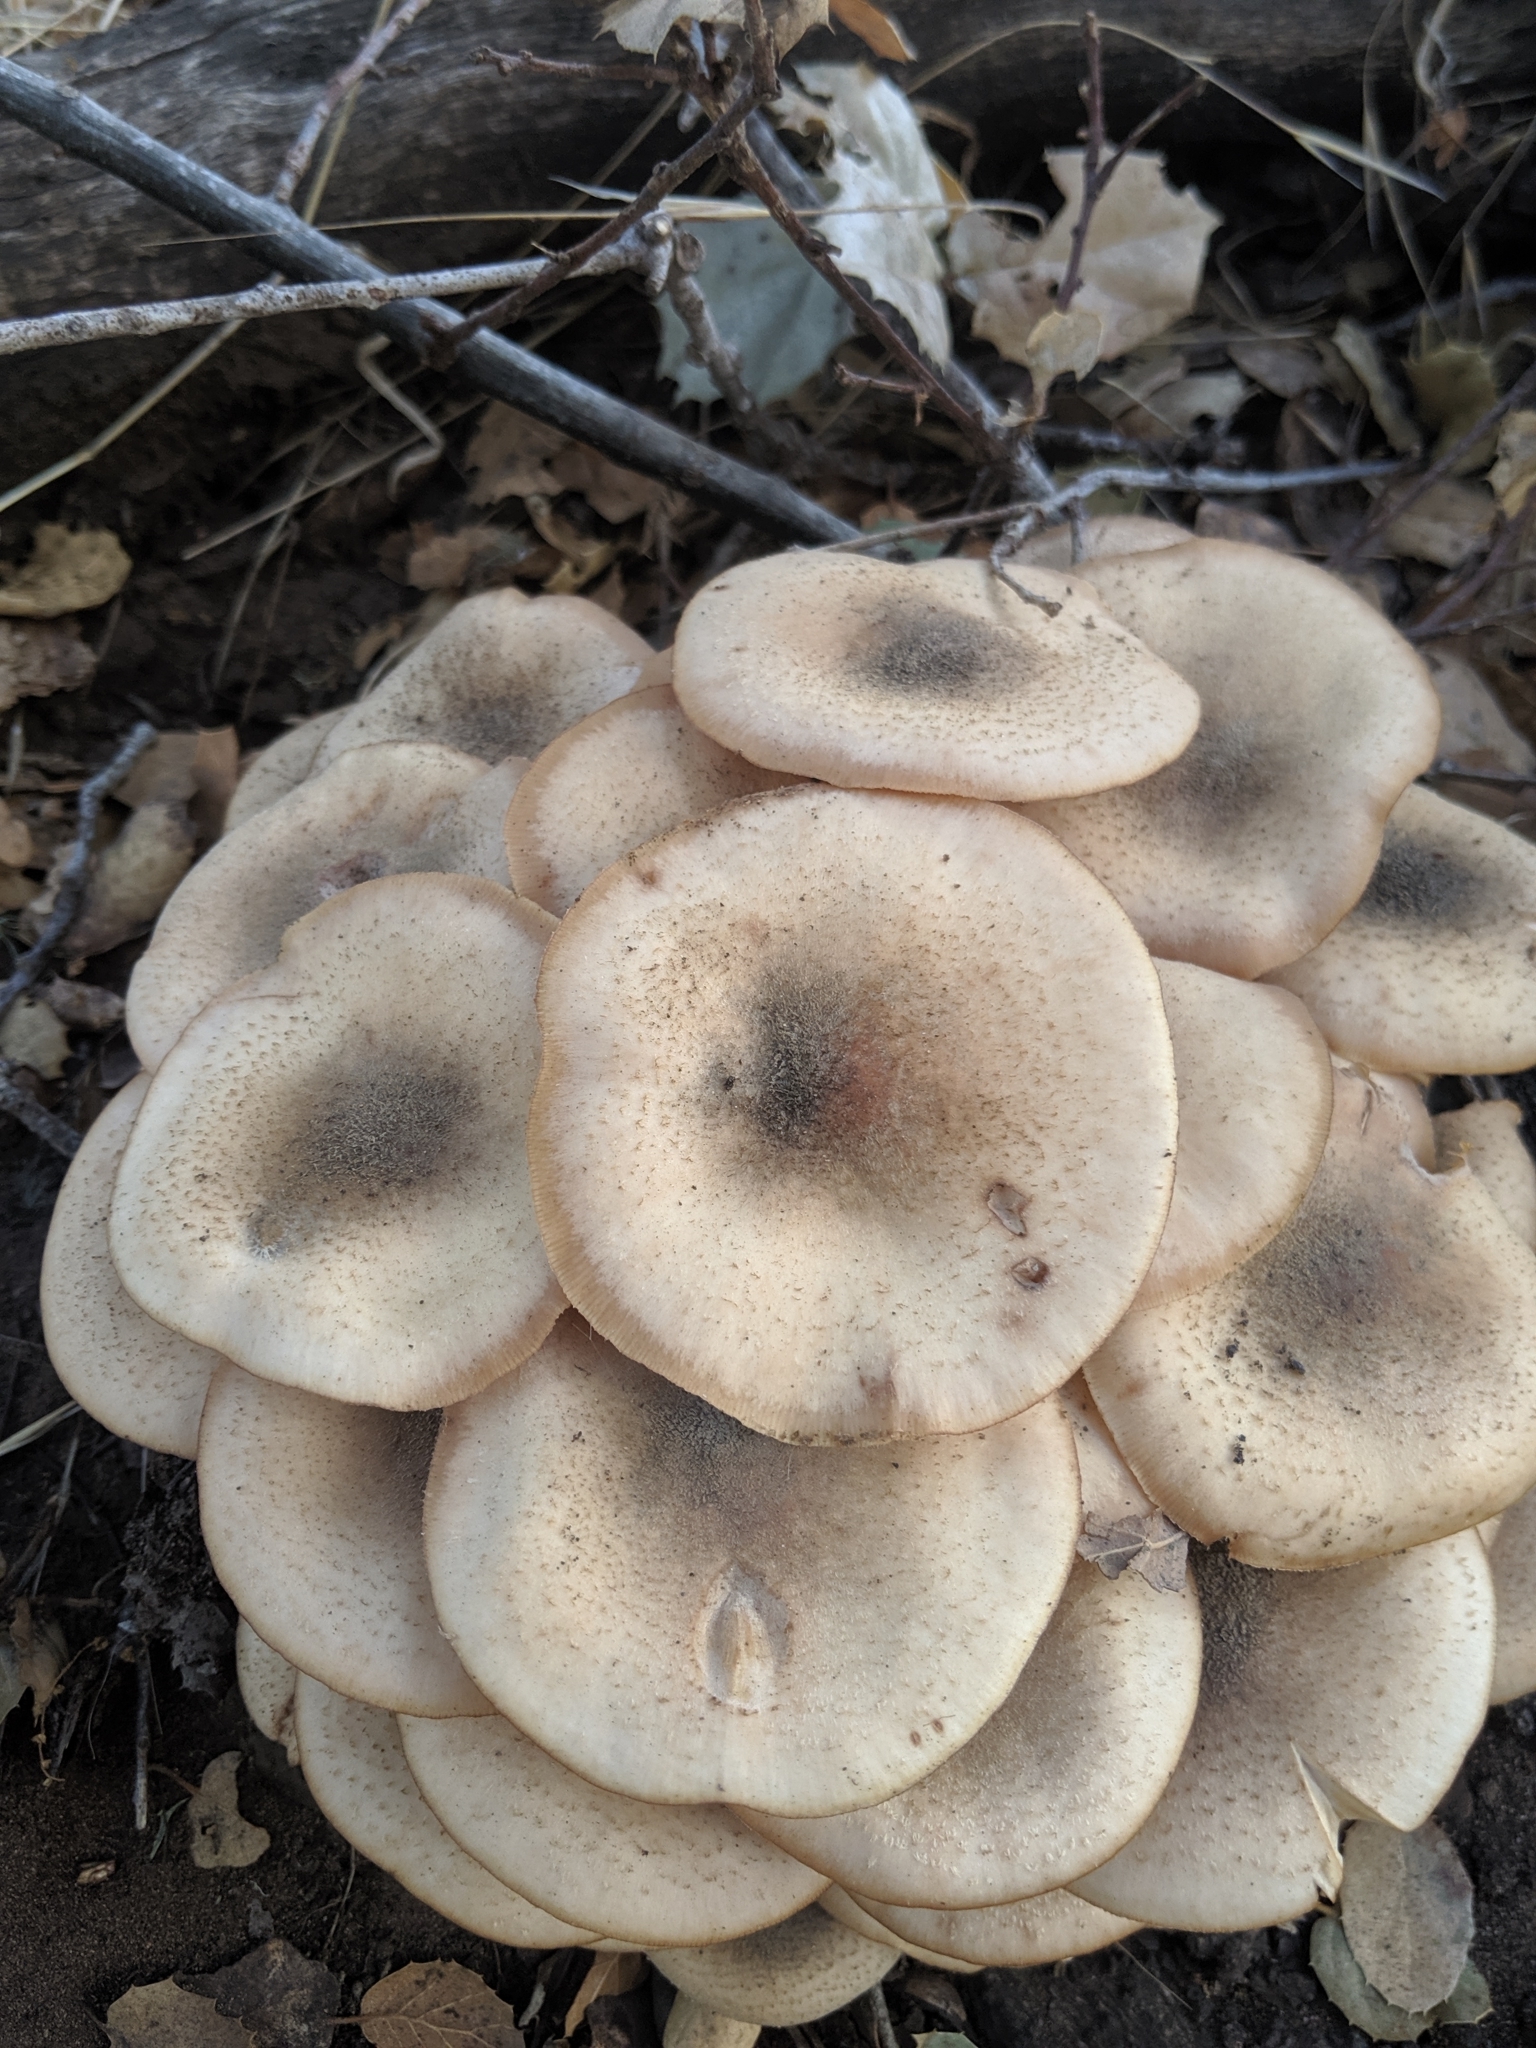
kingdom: Fungi
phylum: Basidiomycota
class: Agaricomycetes
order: Agaricales
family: Physalacriaceae
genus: Armillaria
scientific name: Armillaria mellea
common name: Honey fungus
